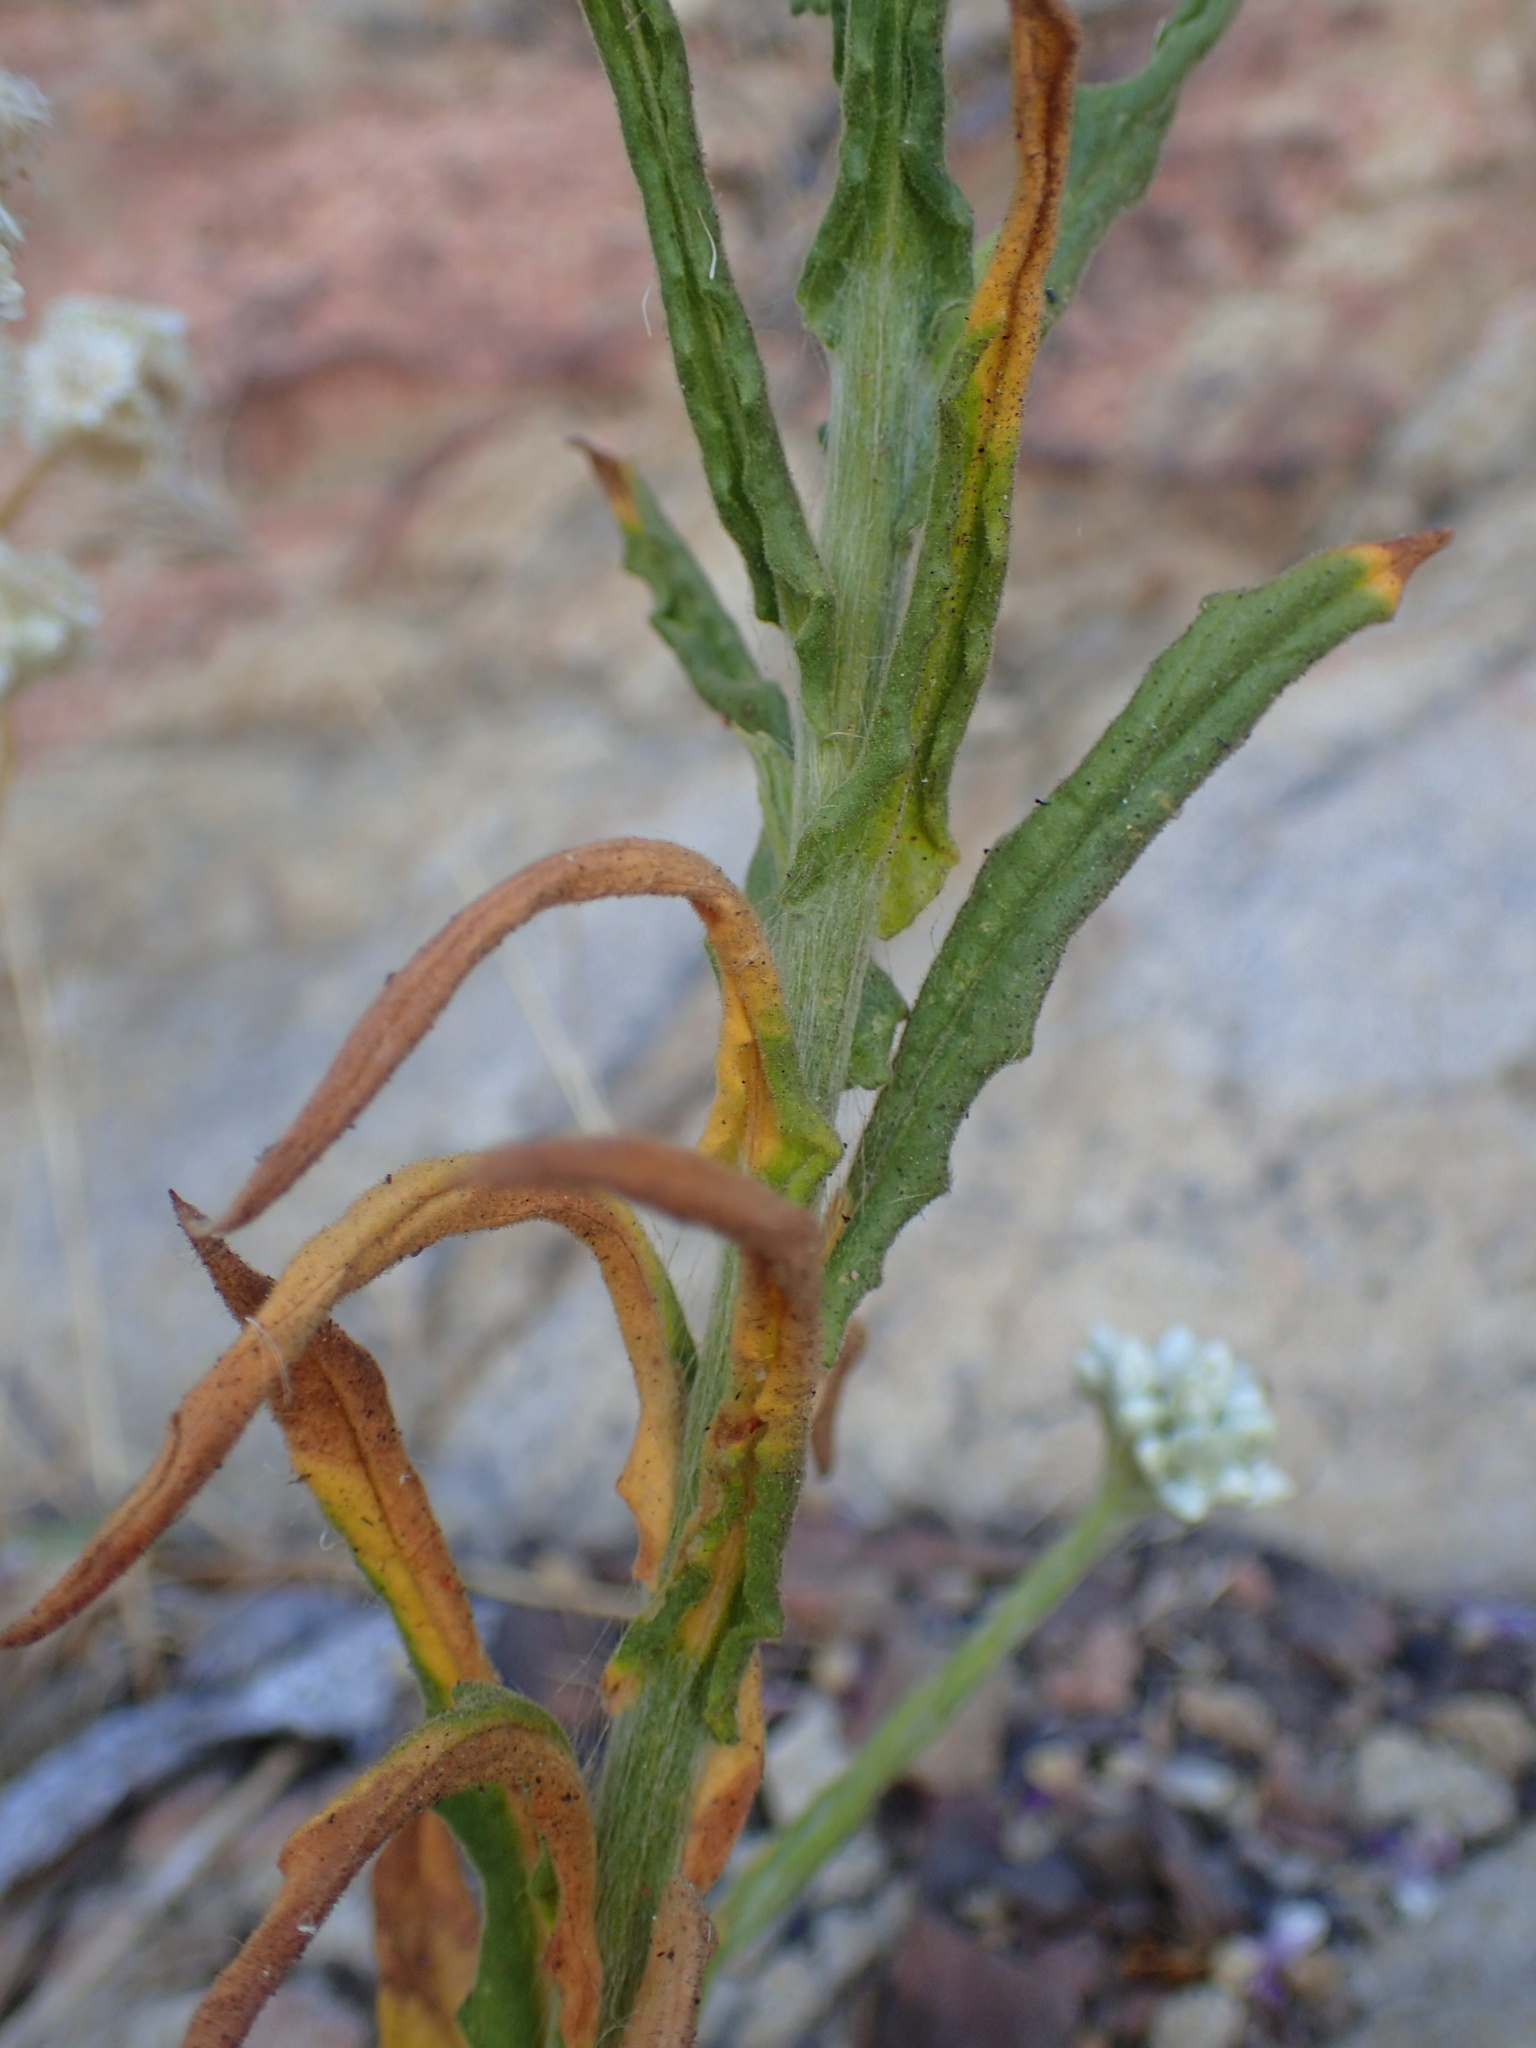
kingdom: Plantae
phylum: Tracheophyta
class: Magnoliopsida
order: Asterales
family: Asteraceae
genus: Pseudognaphalium
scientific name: Pseudognaphalium californicum
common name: California rabbit-tobacco
